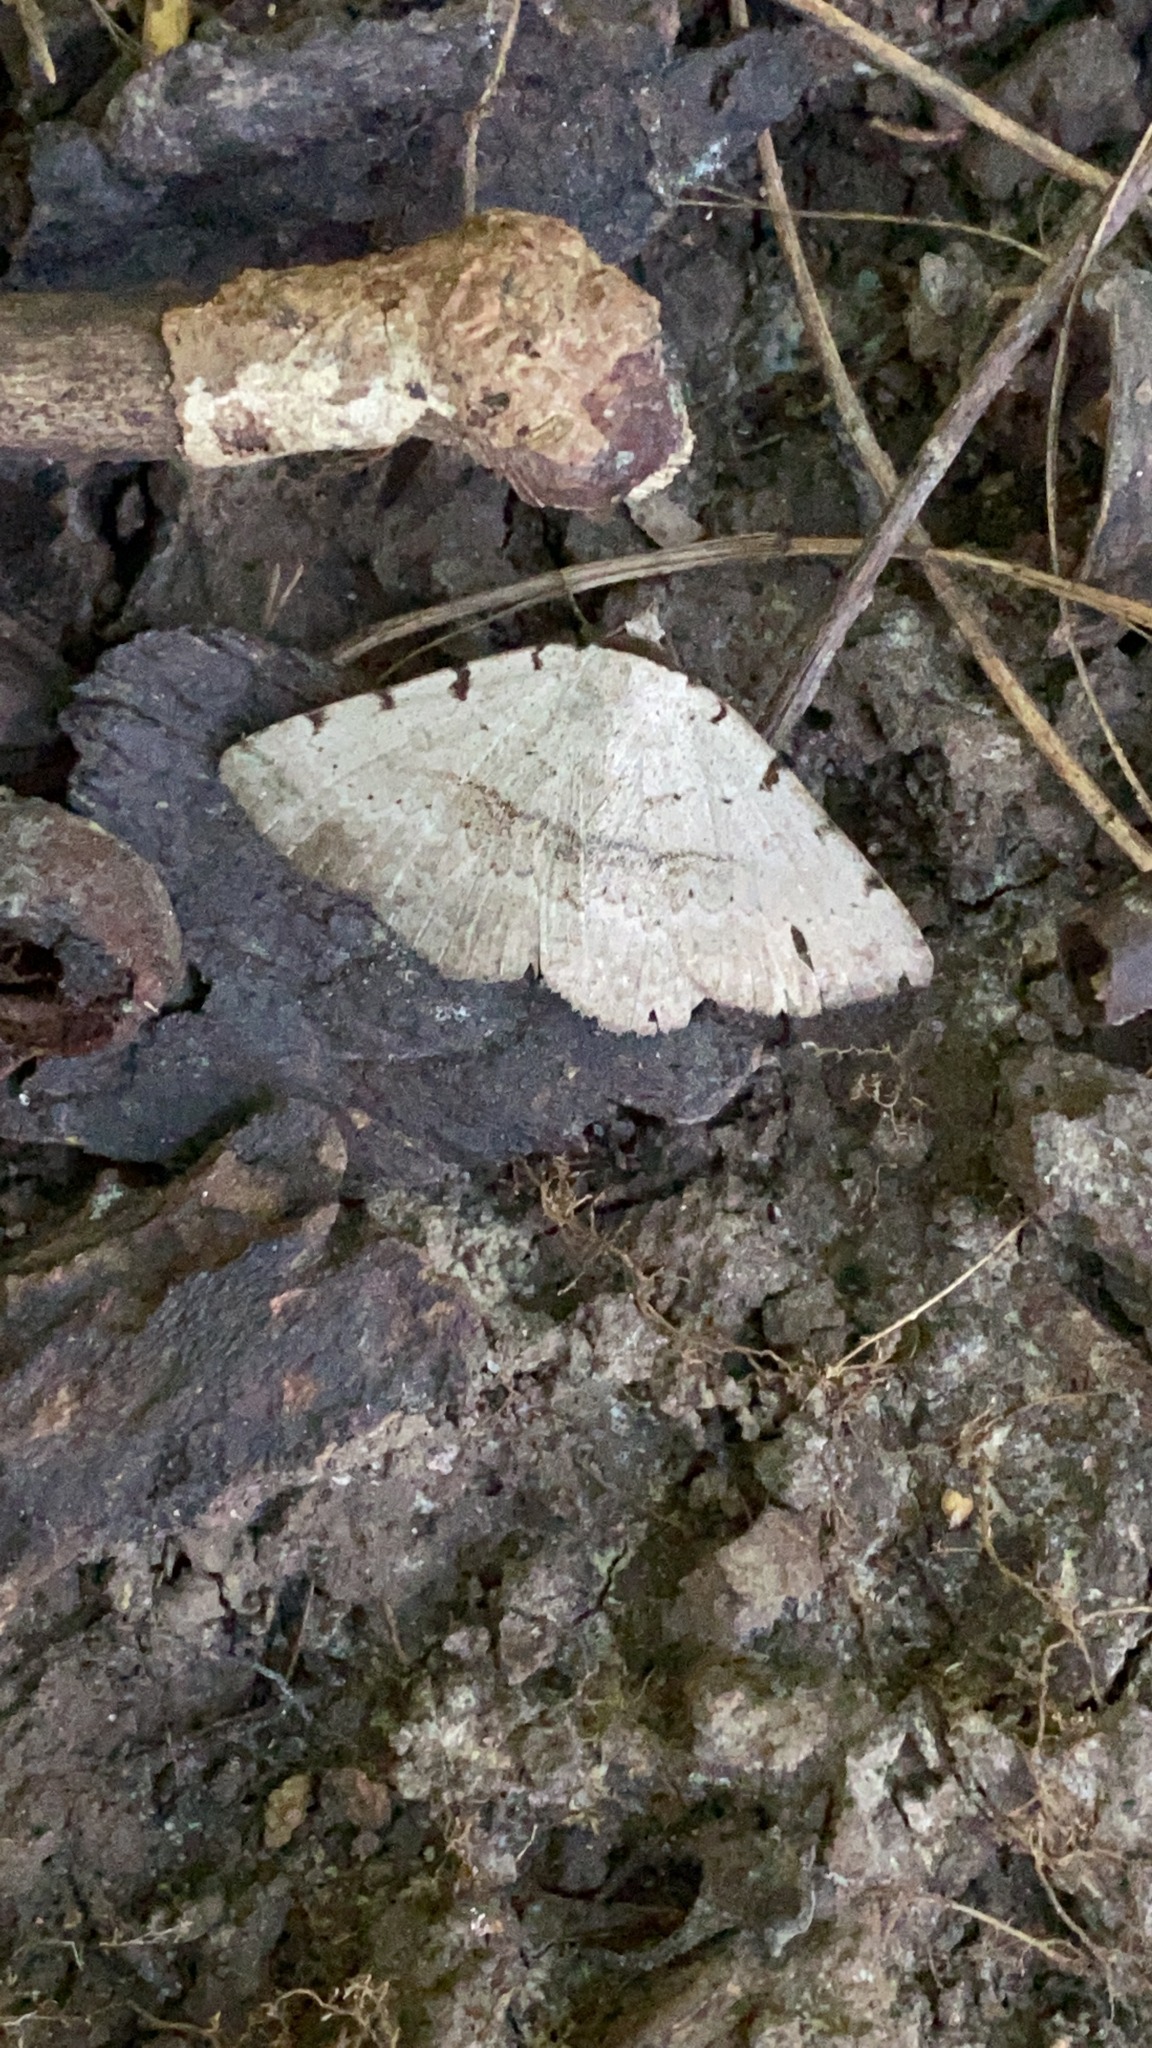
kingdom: Animalia
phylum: Arthropoda
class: Insecta
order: Lepidoptera
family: Erebidae
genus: Spiloloma
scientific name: Spiloloma lunilinea
